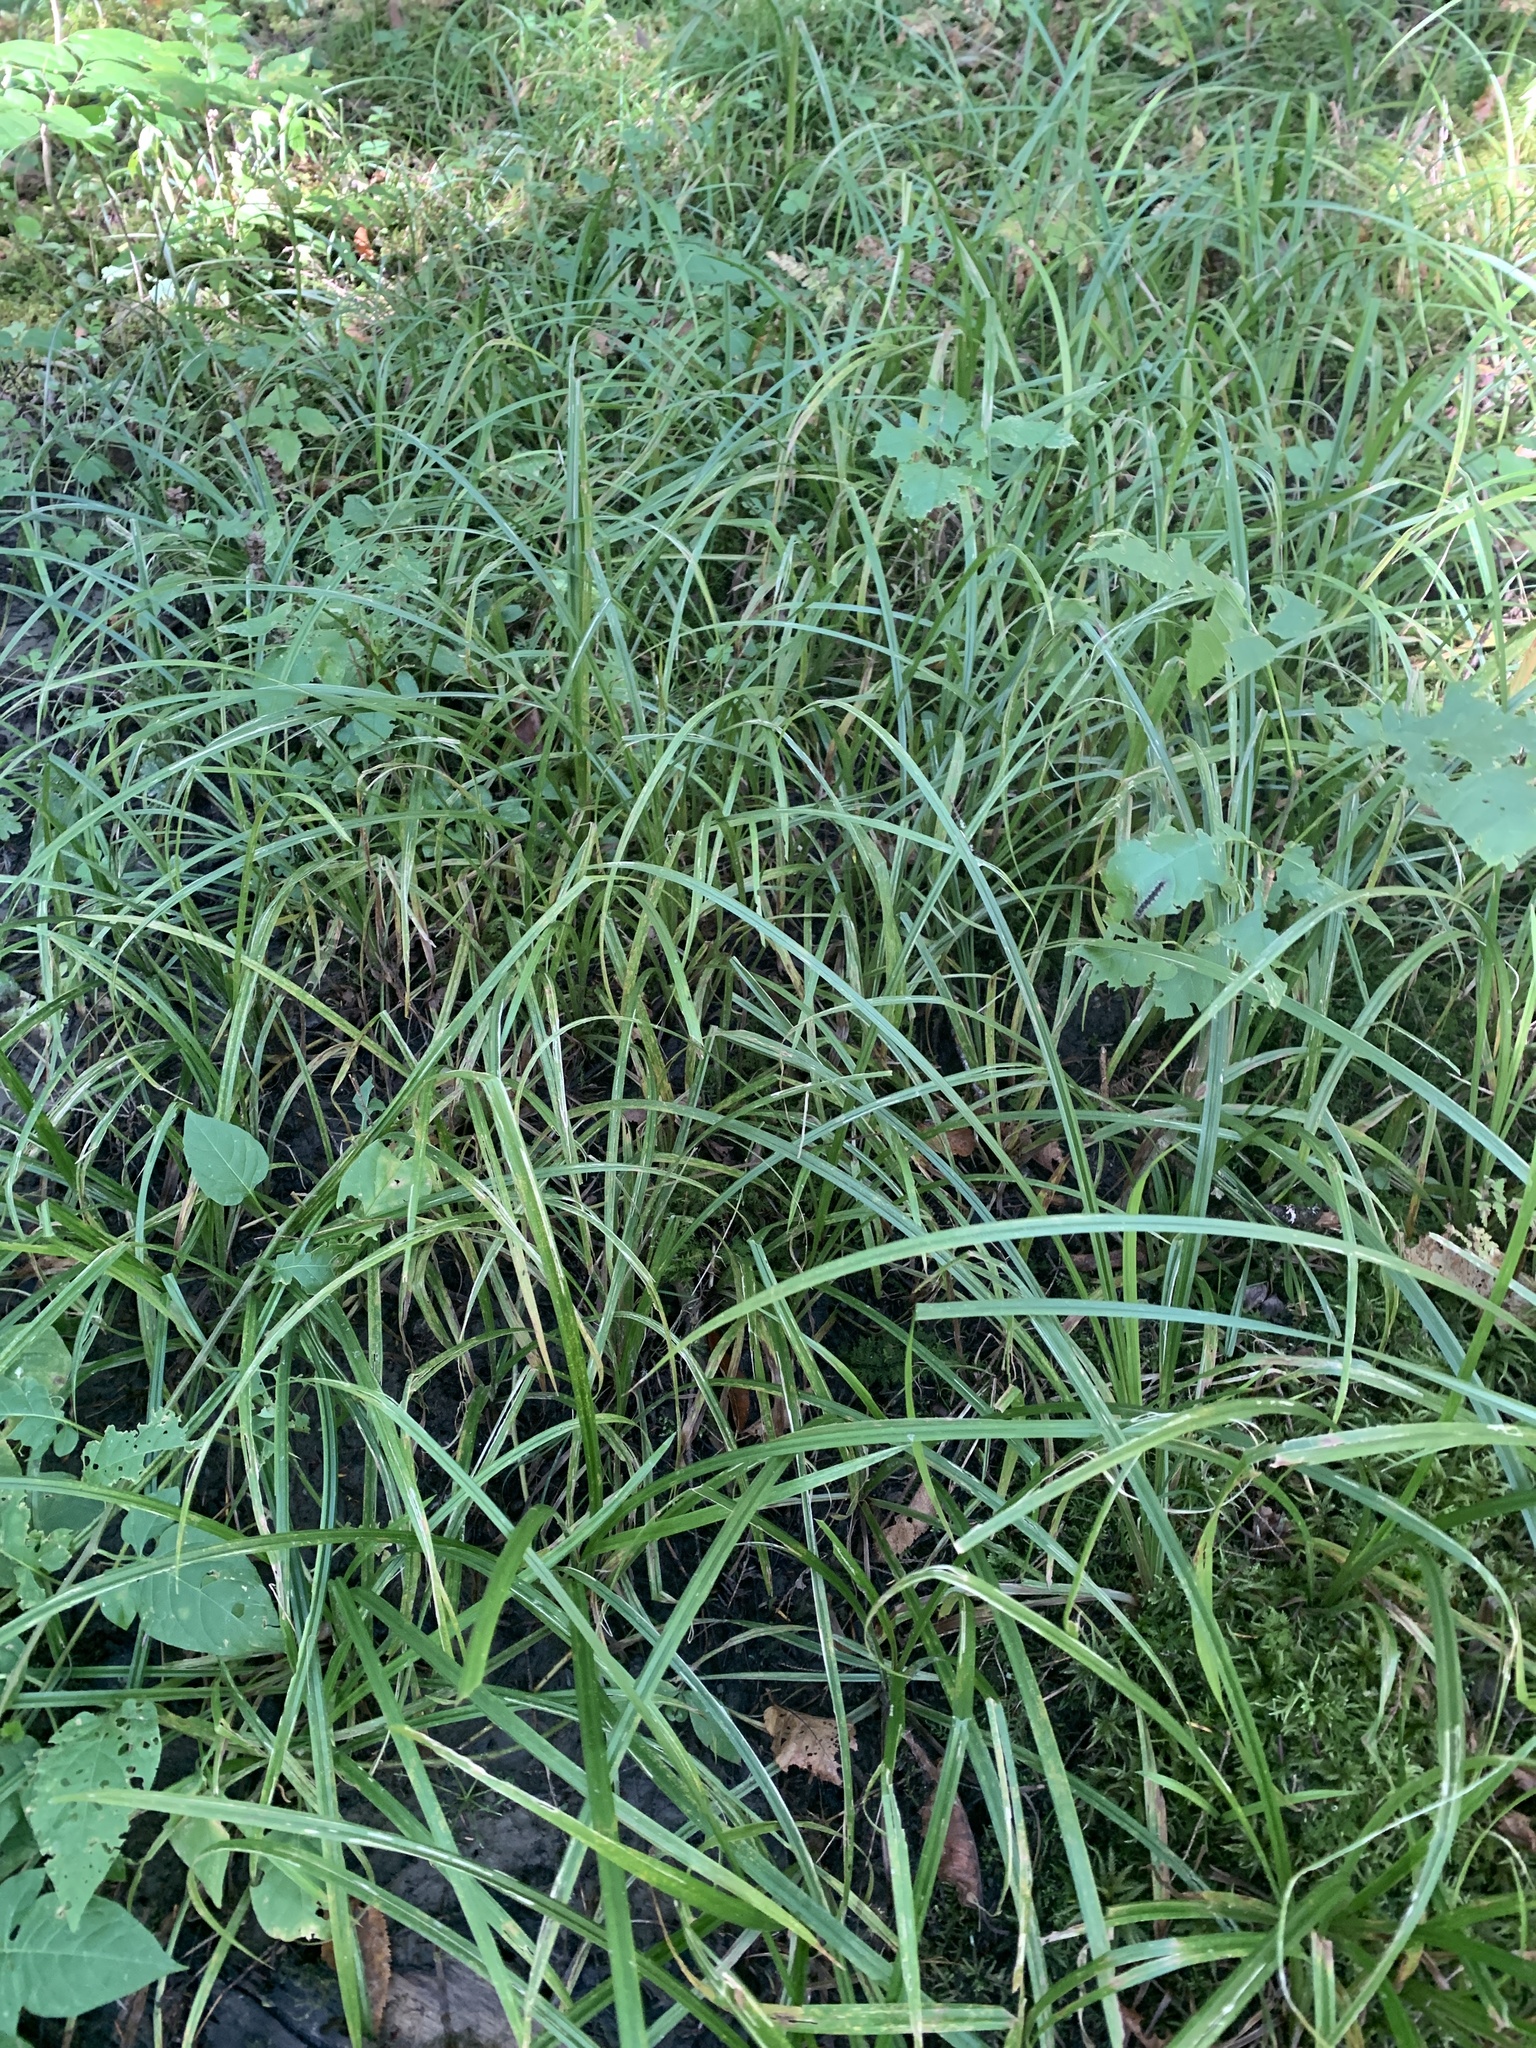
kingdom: Plantae
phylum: Tracheophyta
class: Liliopsida
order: Poales
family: Cyperaceae
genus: Carex
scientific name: Carex scabrata
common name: Eastern rough sedge
